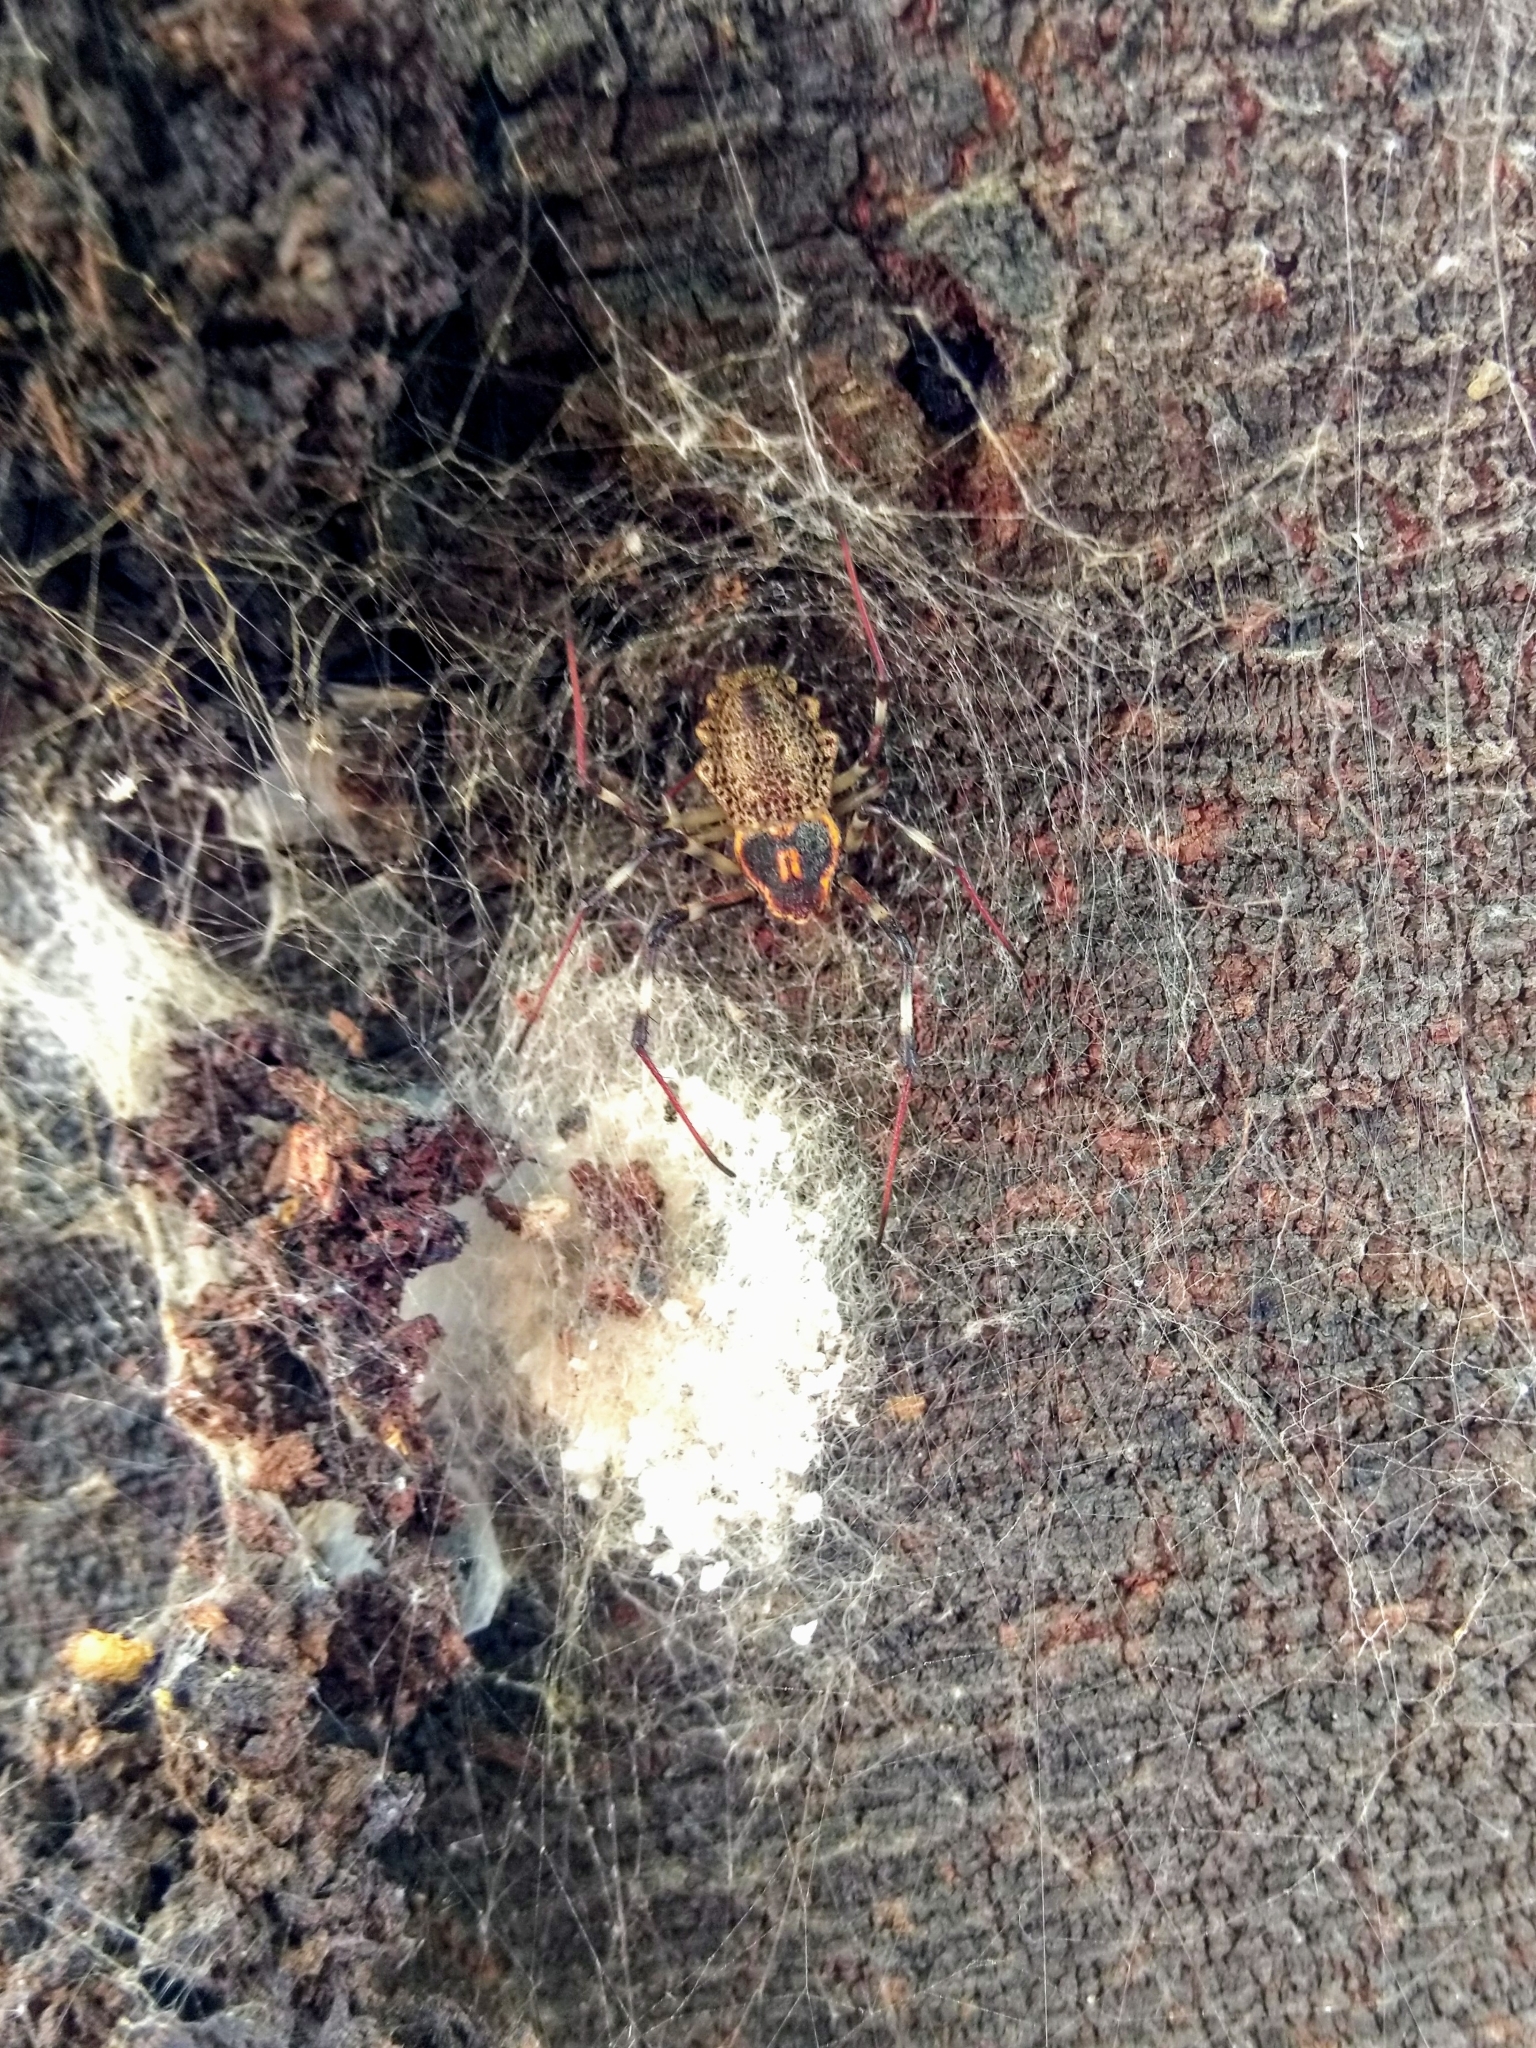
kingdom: Animalia
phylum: Arthropoda
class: Arachnida
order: Araneae
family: Araneidae
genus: Herennia
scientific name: Herennia multipuncta
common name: Spotted coin spider
